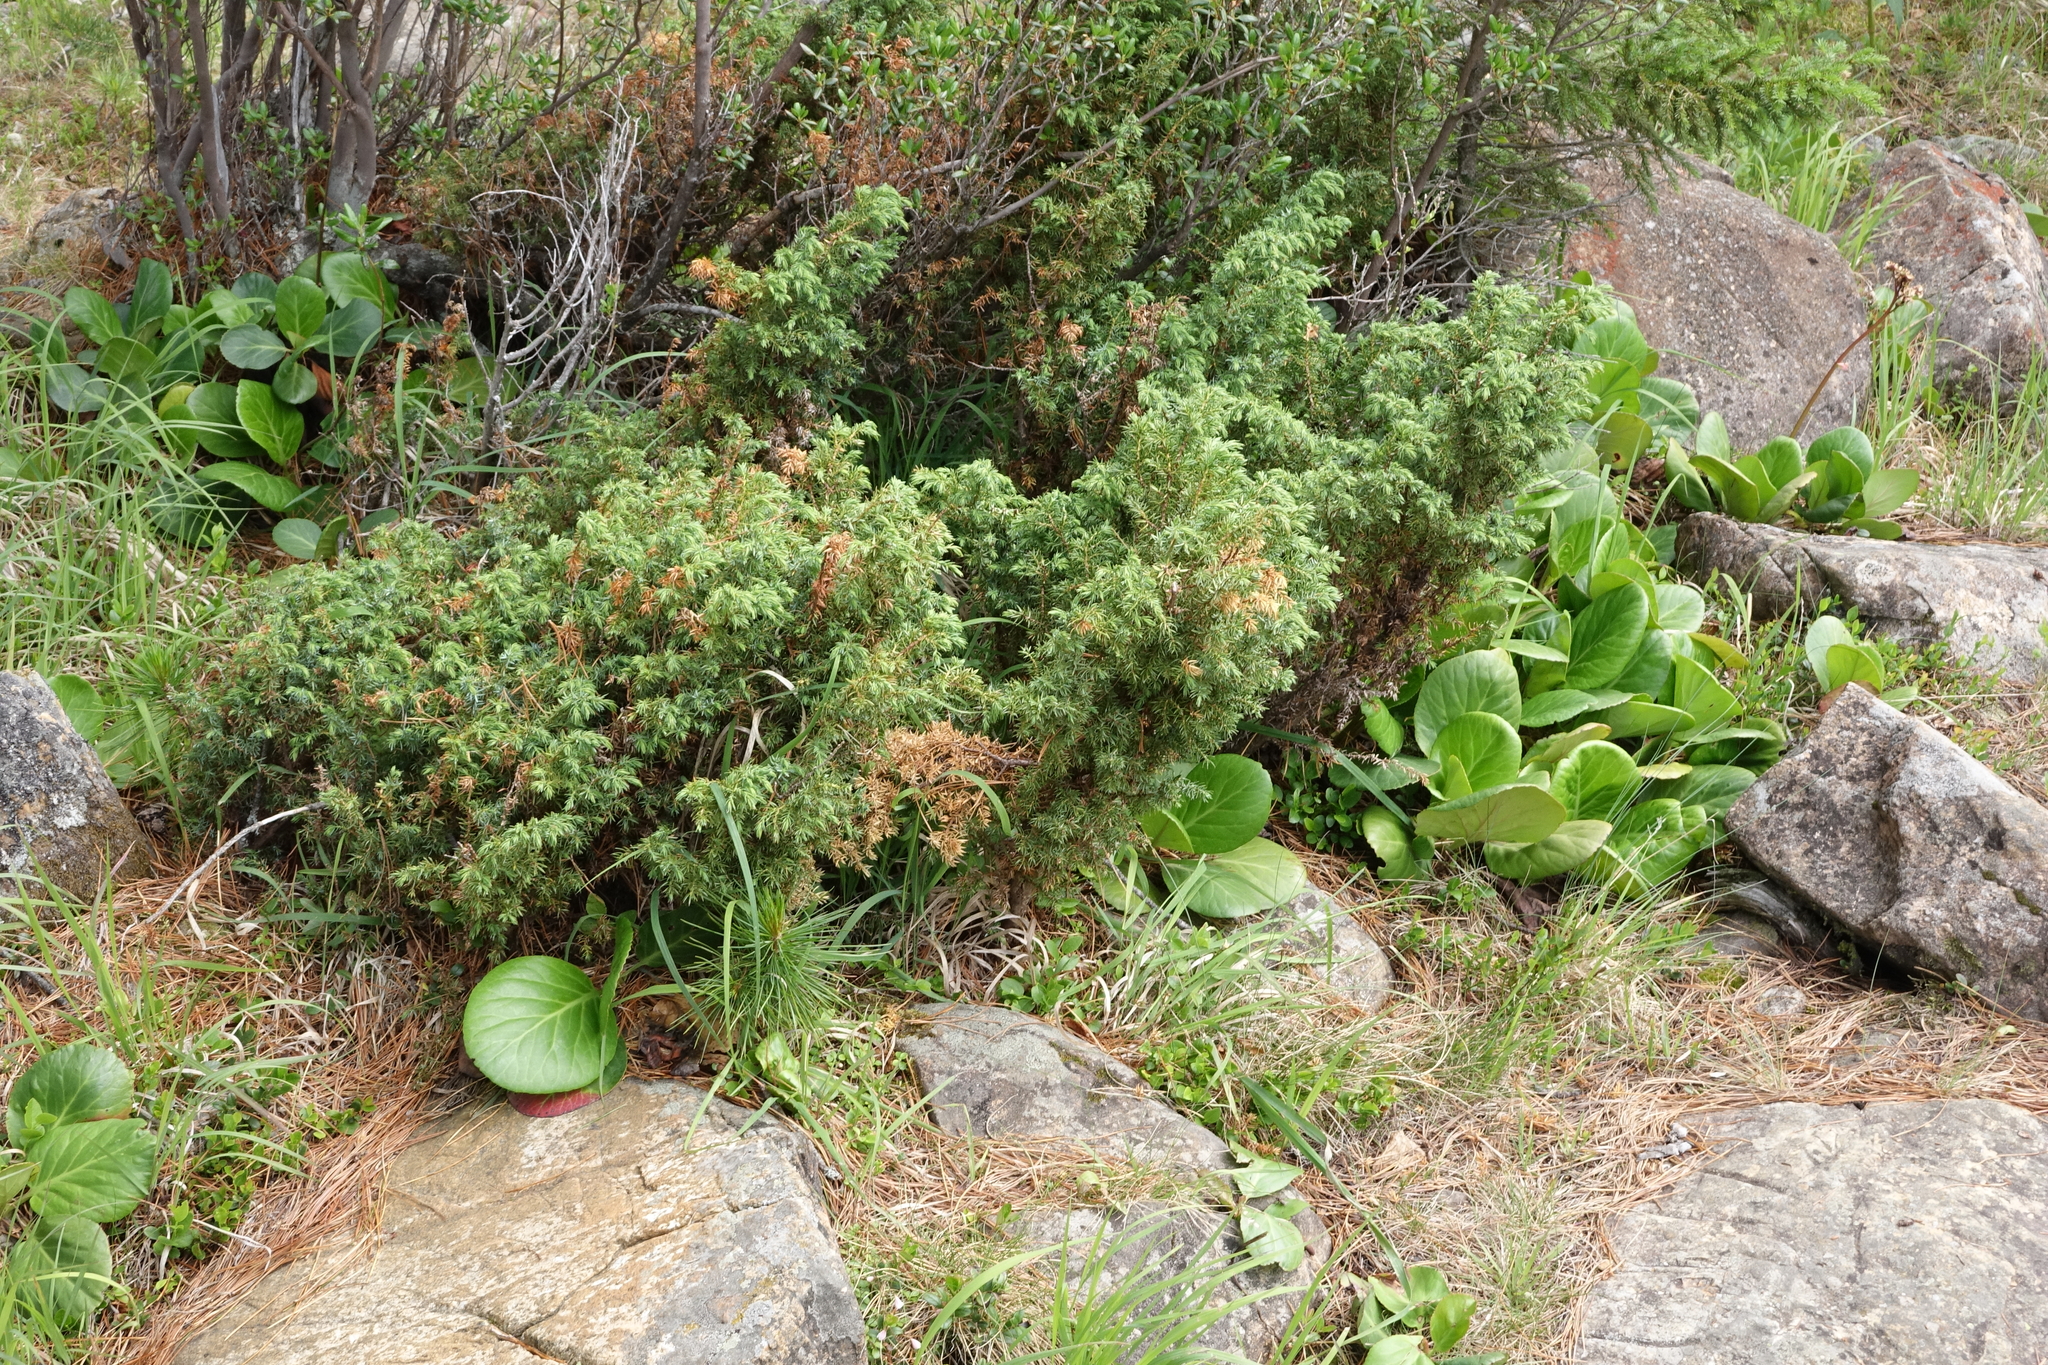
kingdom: Plantae
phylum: Tracheophyta
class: Pinopsida
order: Pinales
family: Cupressaceae
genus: Juniperus
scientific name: Juniperus communis
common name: Common juniper
